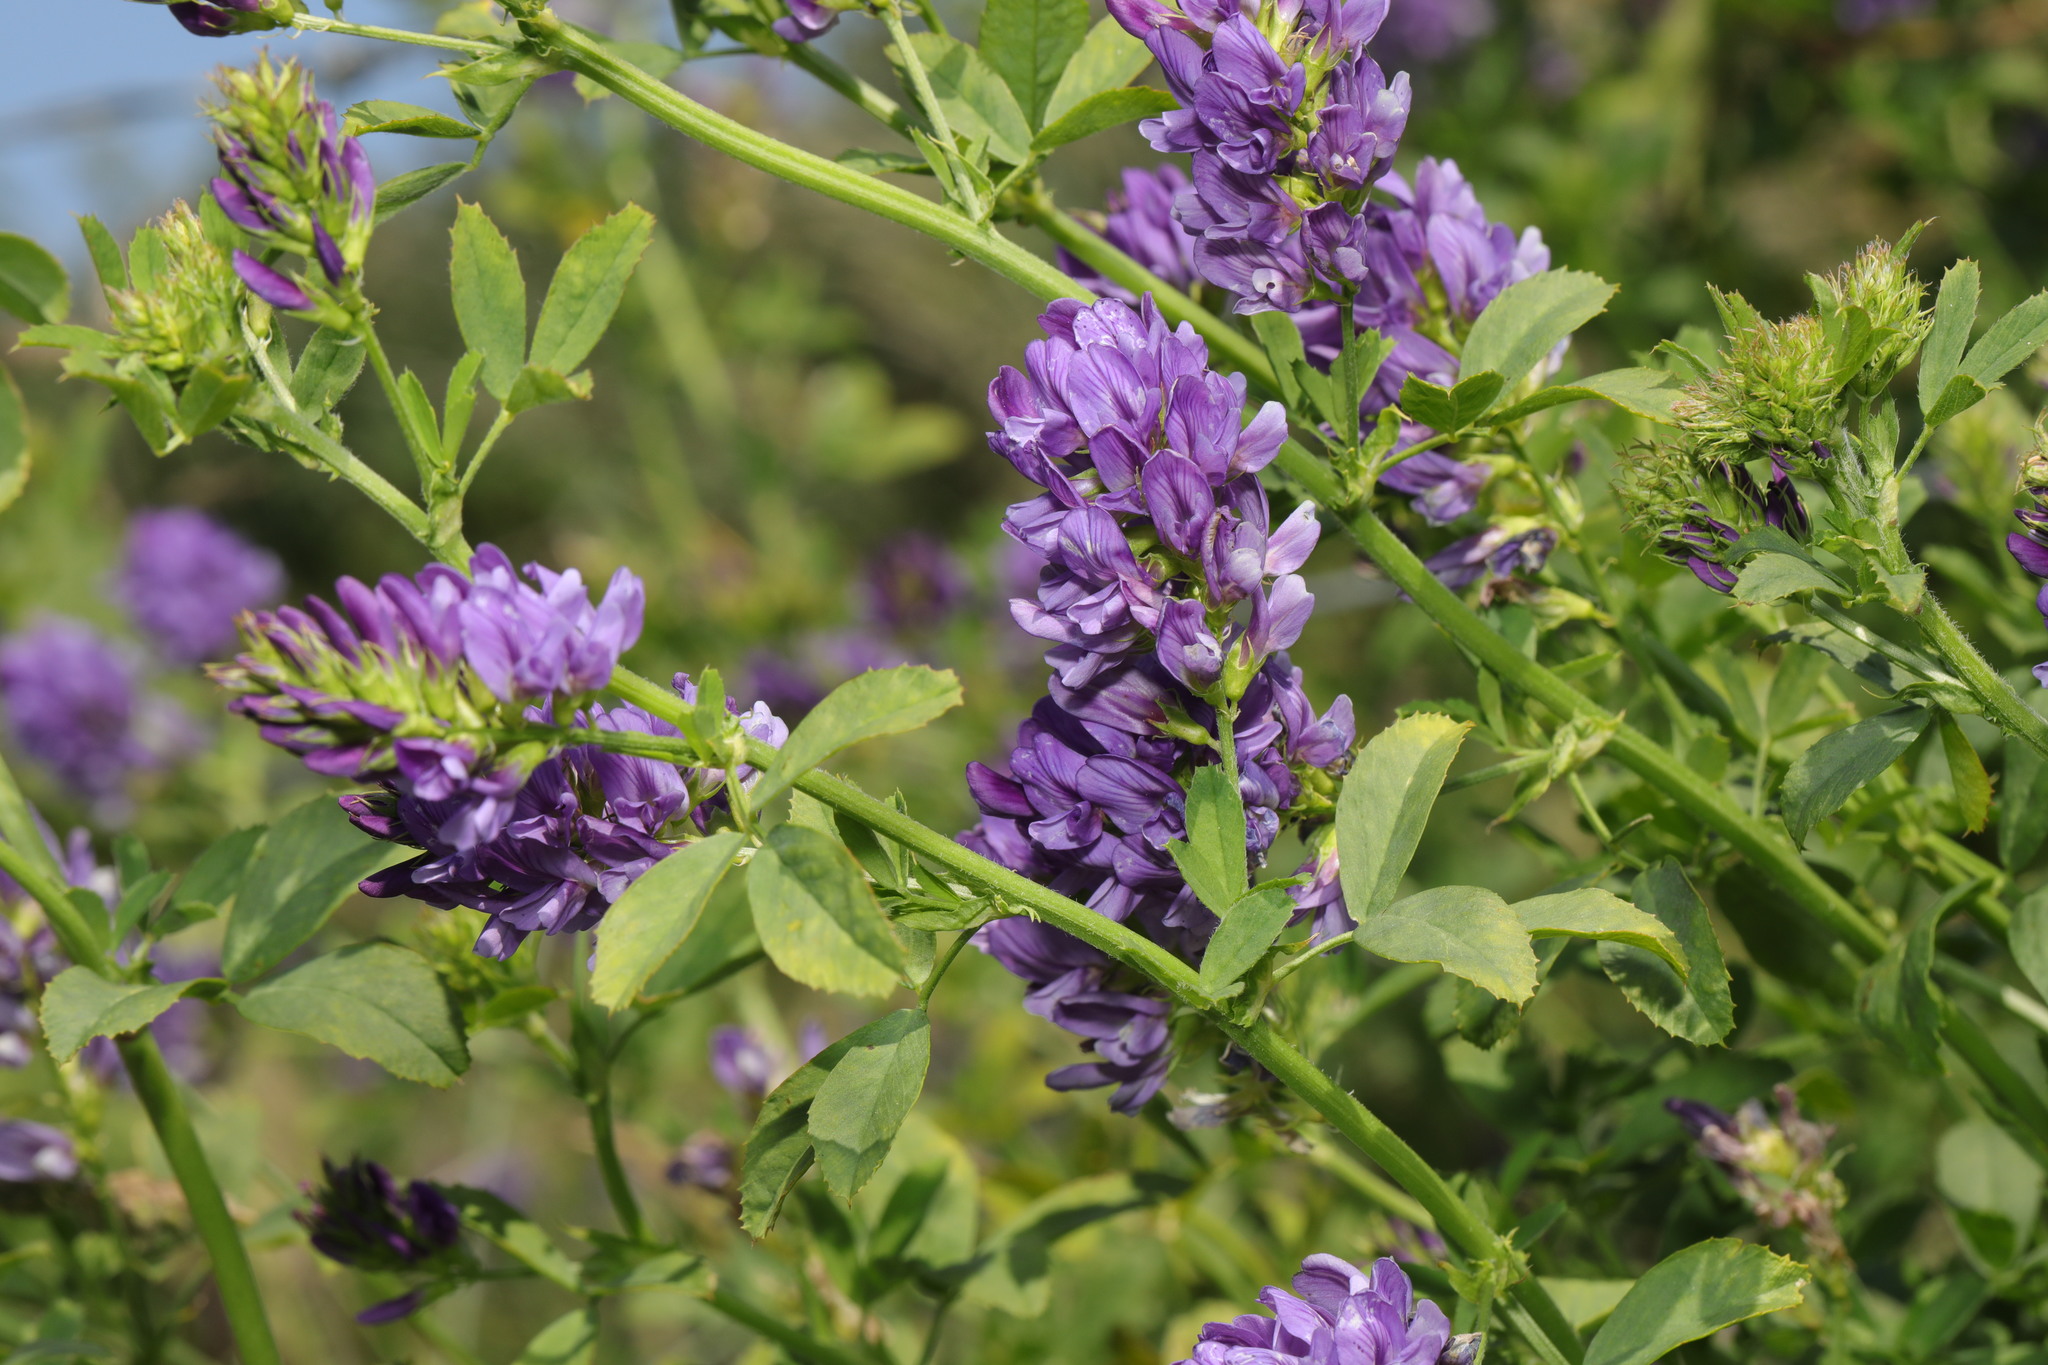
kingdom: Plantae
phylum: Tracheophyta
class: Magnoliopsida
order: Fabales
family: Fabaceae
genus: Medicago
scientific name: Medicago sativa
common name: Alfalfa
